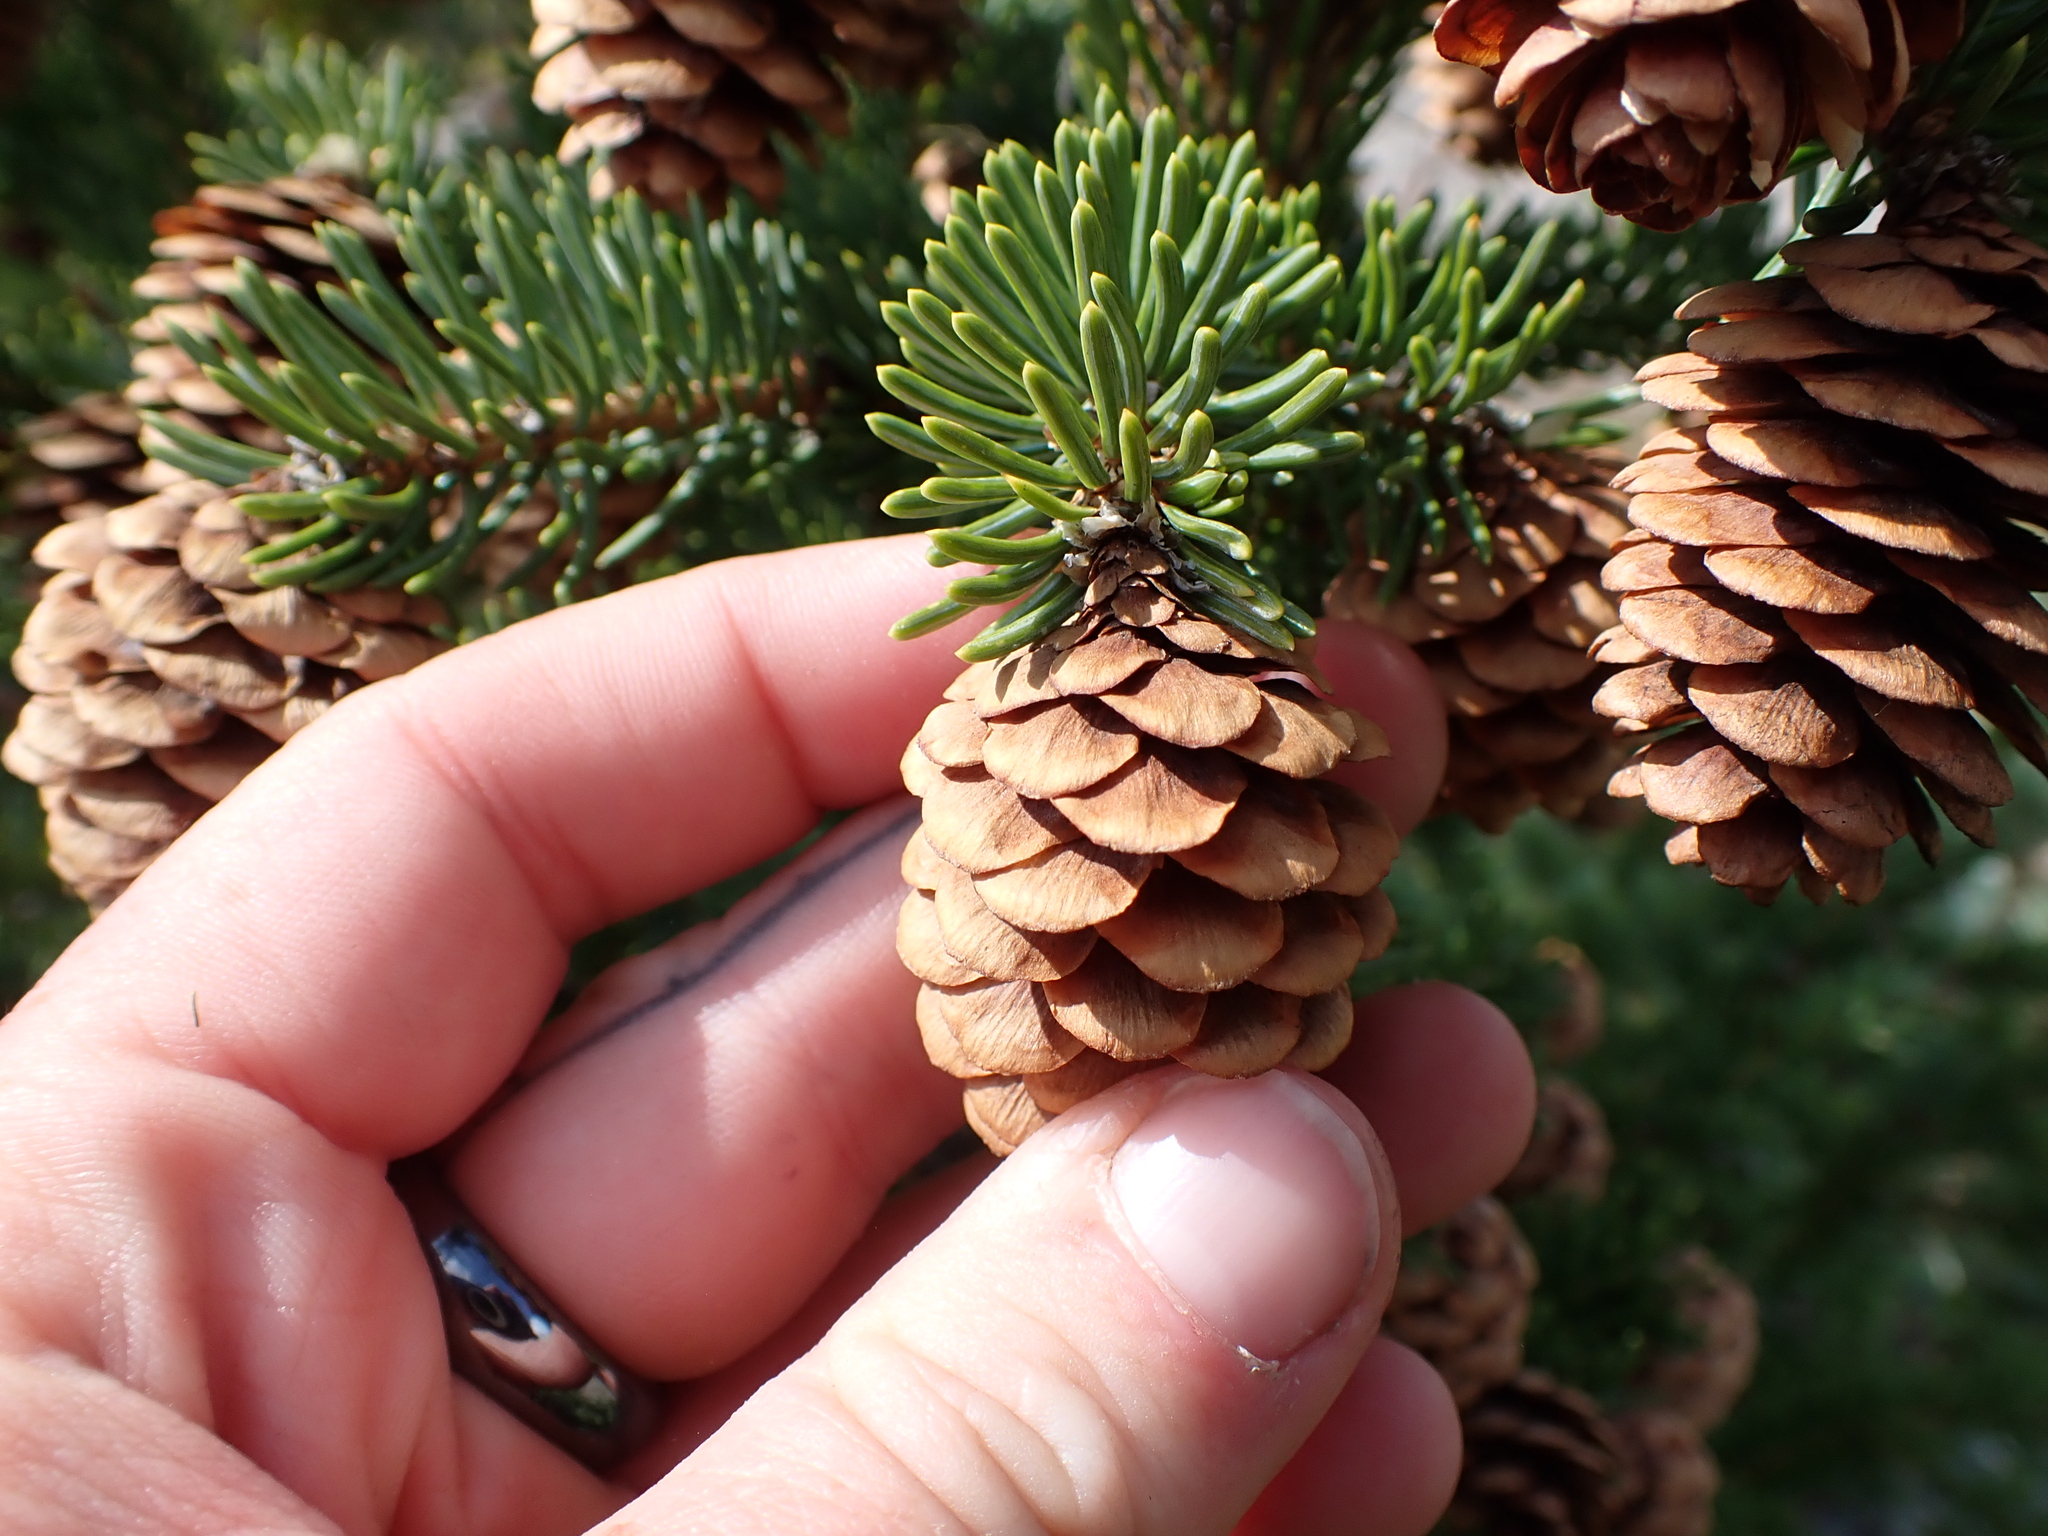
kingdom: Plantae
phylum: Tracheophyta
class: Pinopsida
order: Pinales
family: Pinaceae
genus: Picea
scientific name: Picea glauca
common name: White spruce
